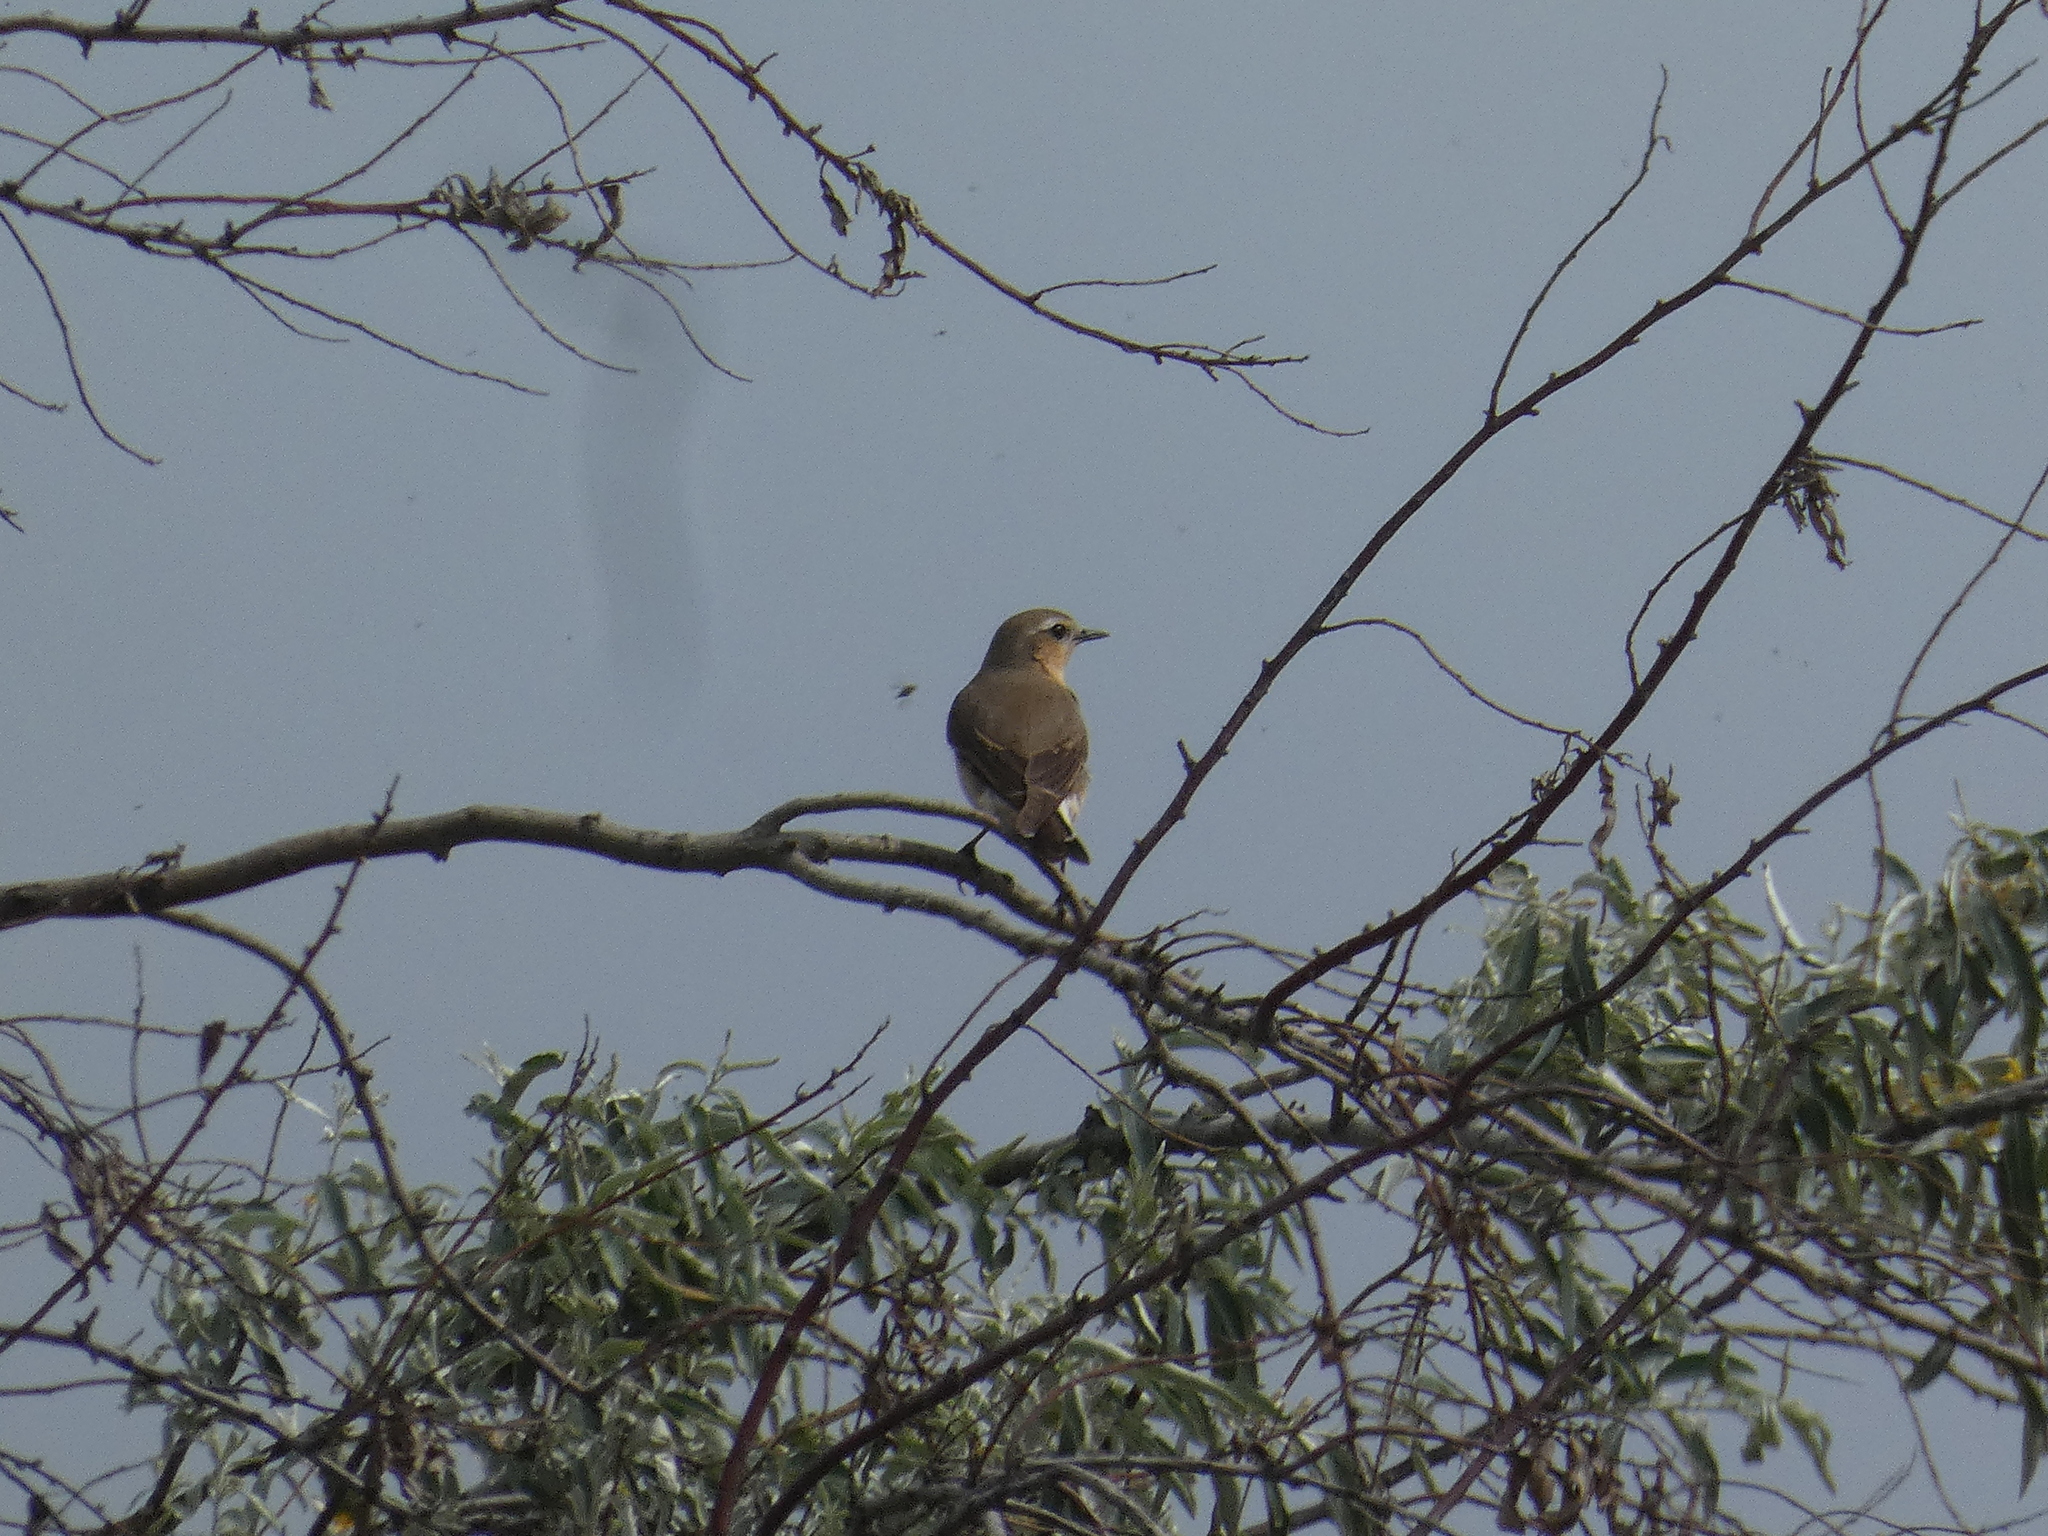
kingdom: Animalia
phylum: Chordata
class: Aves
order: Passeriformes
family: Muscicapidae
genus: Oenanthe
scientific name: Oenanthe oenanthe
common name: Northern wheatear
